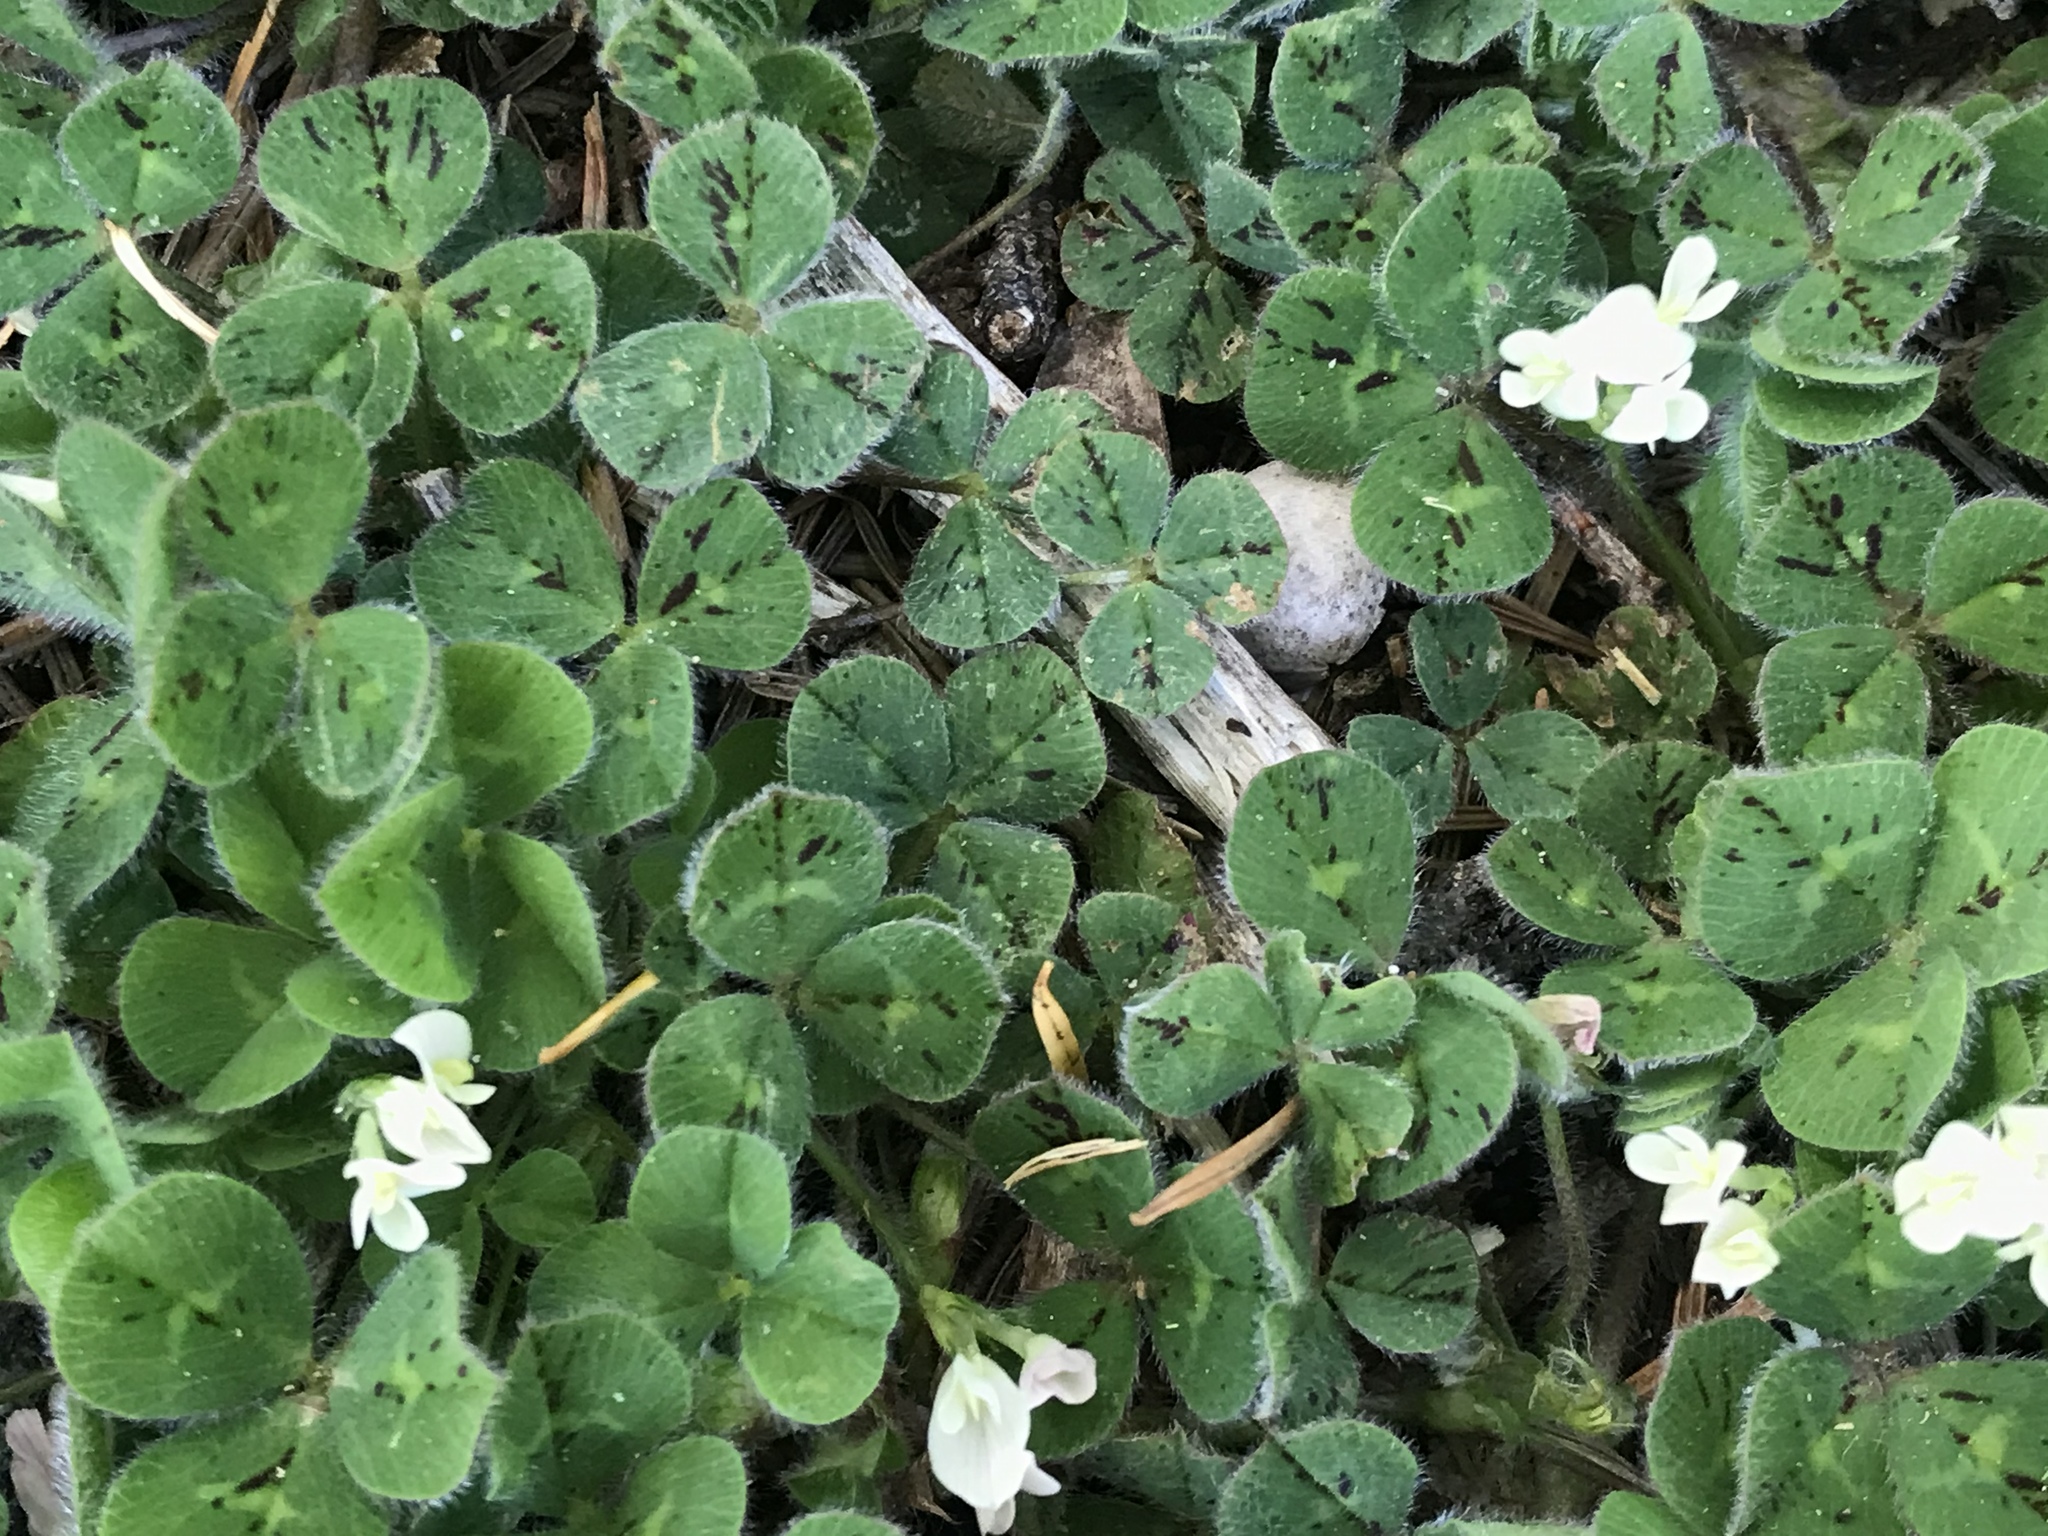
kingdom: Plantae
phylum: Tracheophyta
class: Magnoliopsida
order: Fabales
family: Fabaceae
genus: Trifolium
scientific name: Trifolium subterraneum
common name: Subterranean clover
